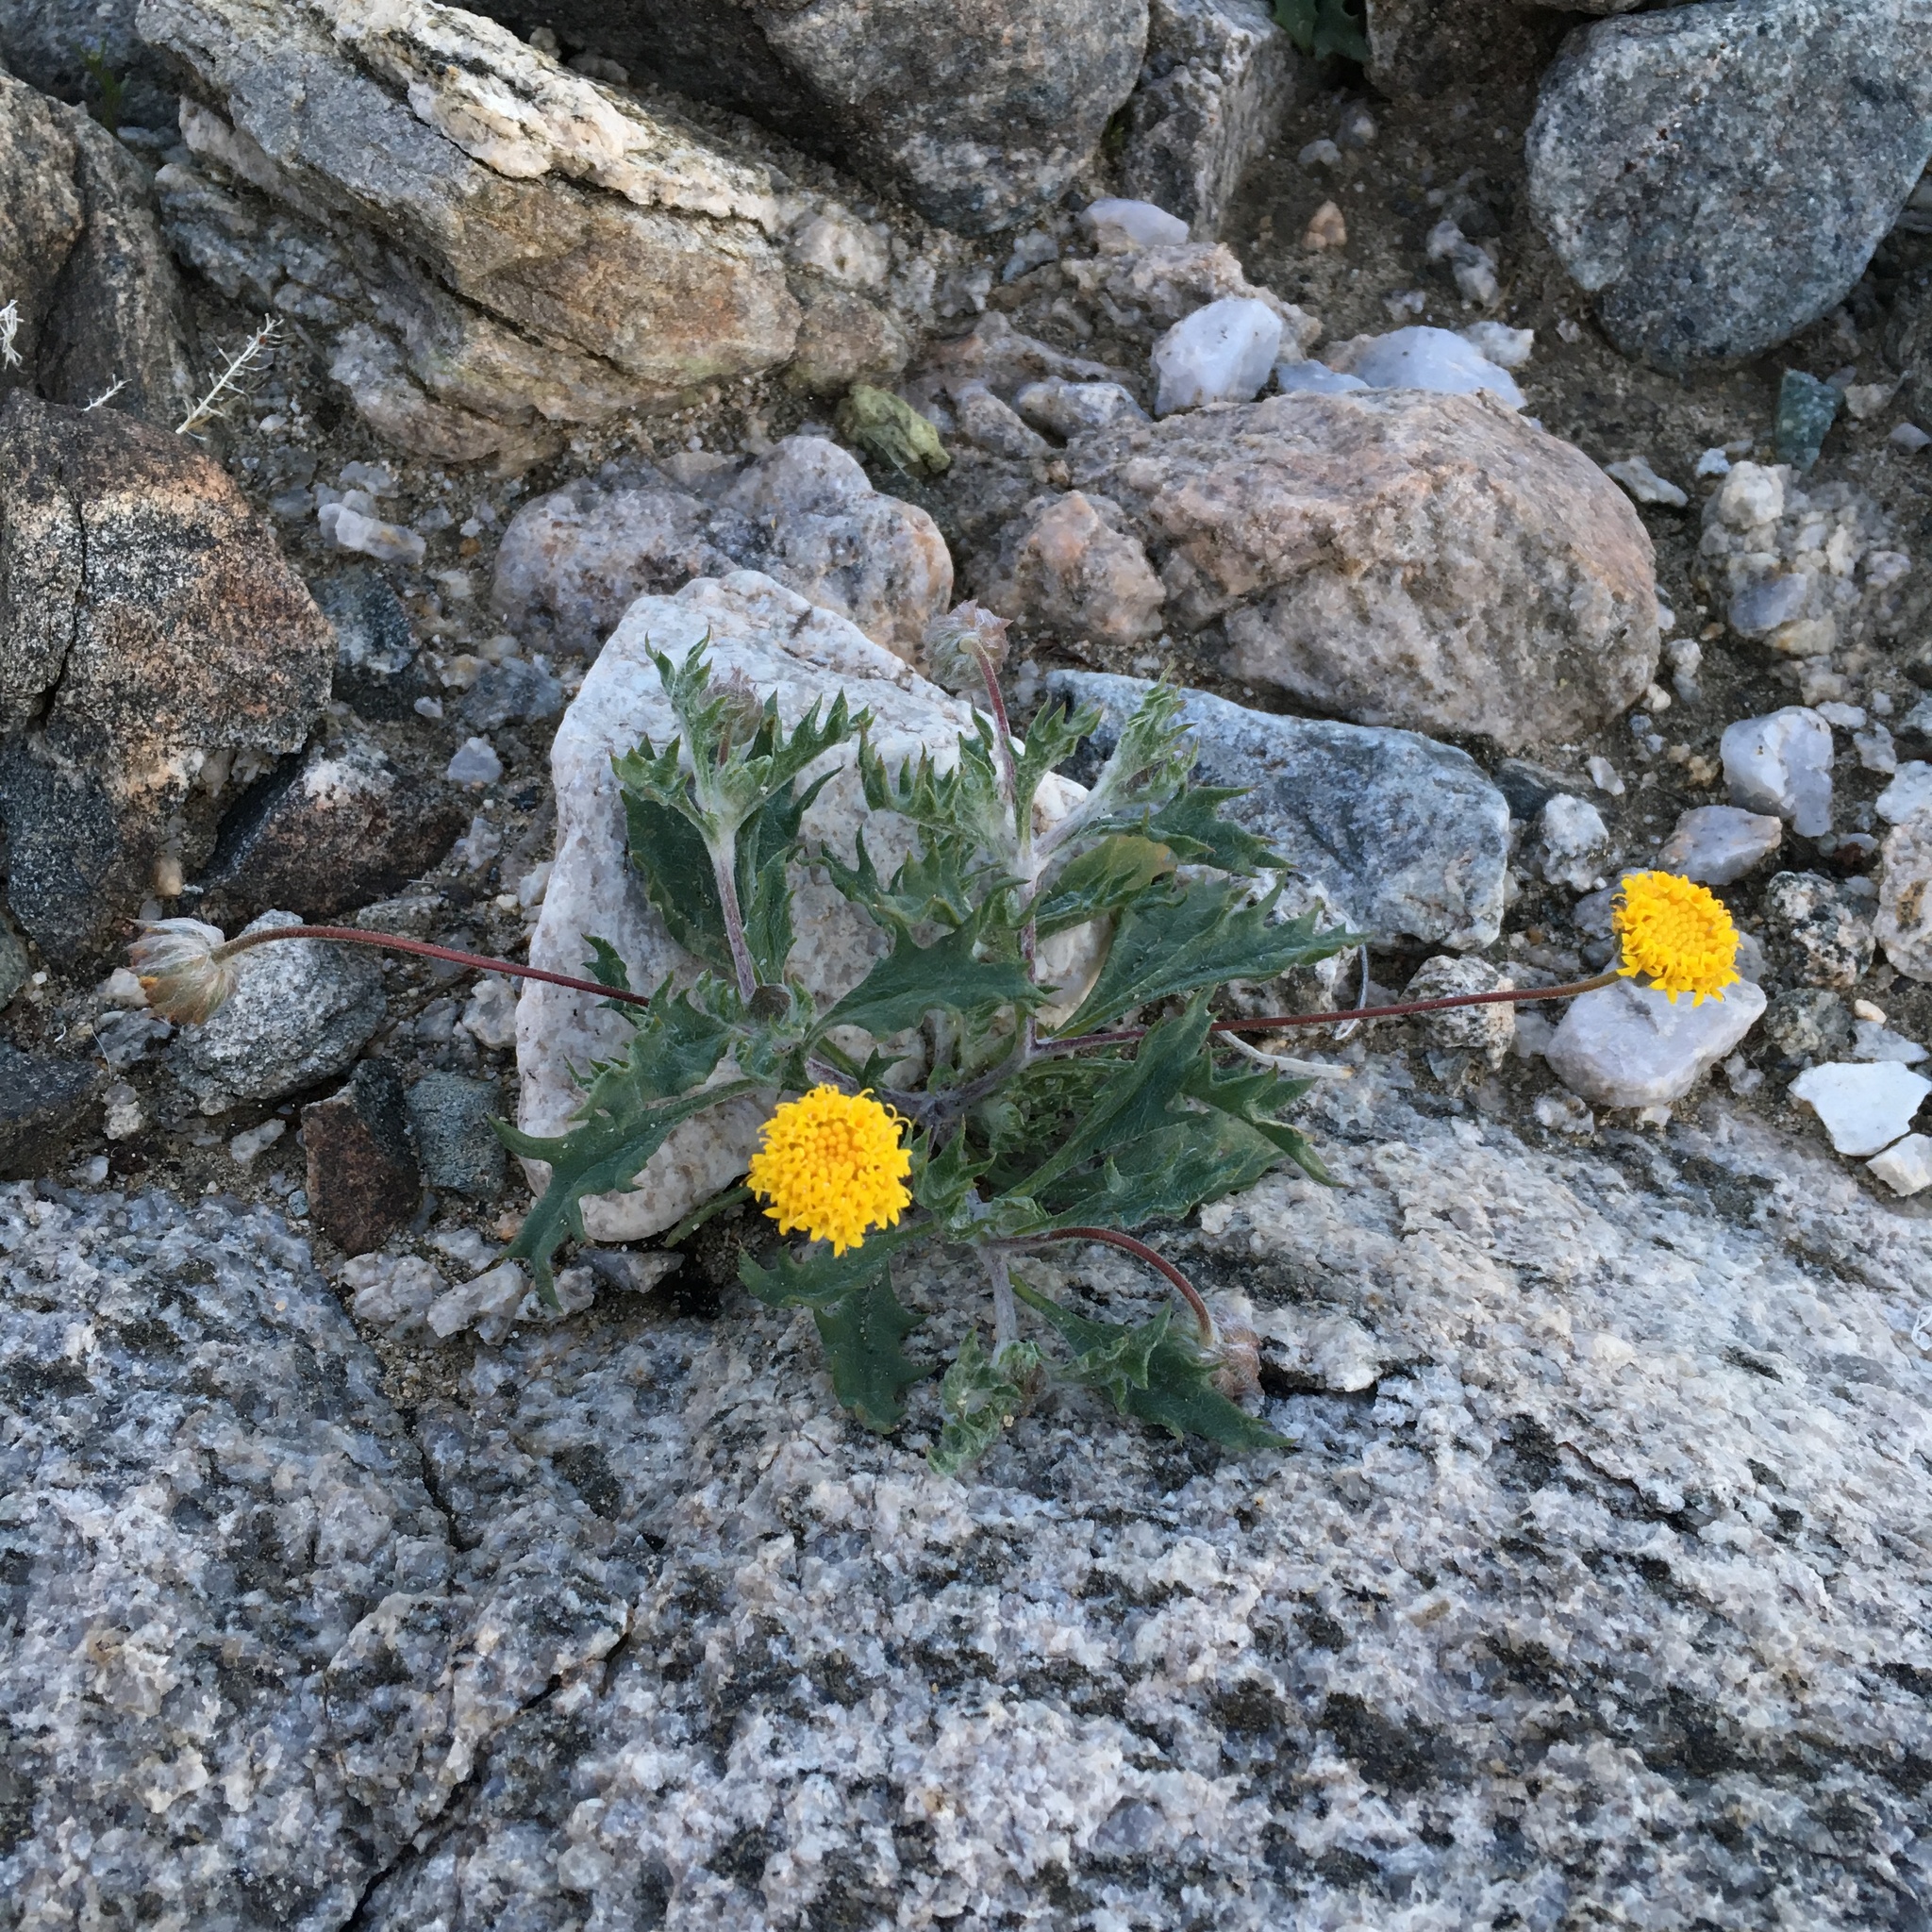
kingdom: Plantae
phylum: Tracheophyta
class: Magnoliopsida
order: Asterales
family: Asteraceae
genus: Trichoptilium
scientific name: Trichoptilium incisum
